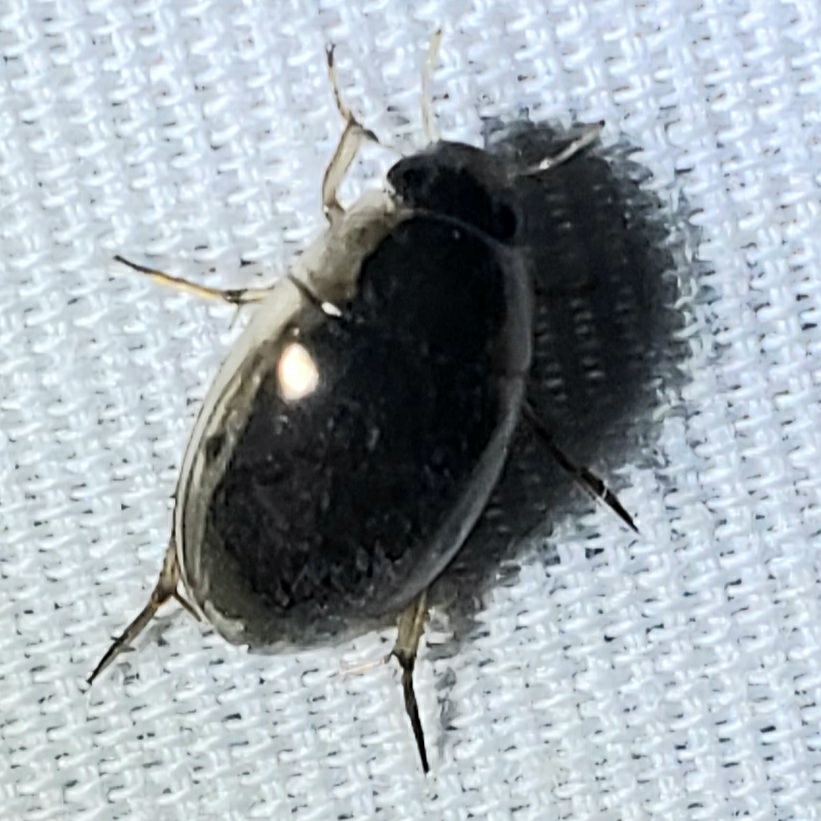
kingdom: Animalia
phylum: Arthropoda
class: Insecta
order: Coleoptera
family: Hydrophilidae
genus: Tropisternus
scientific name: Tropisternus lateralis
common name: Lateral-banded water scavenger beetle
